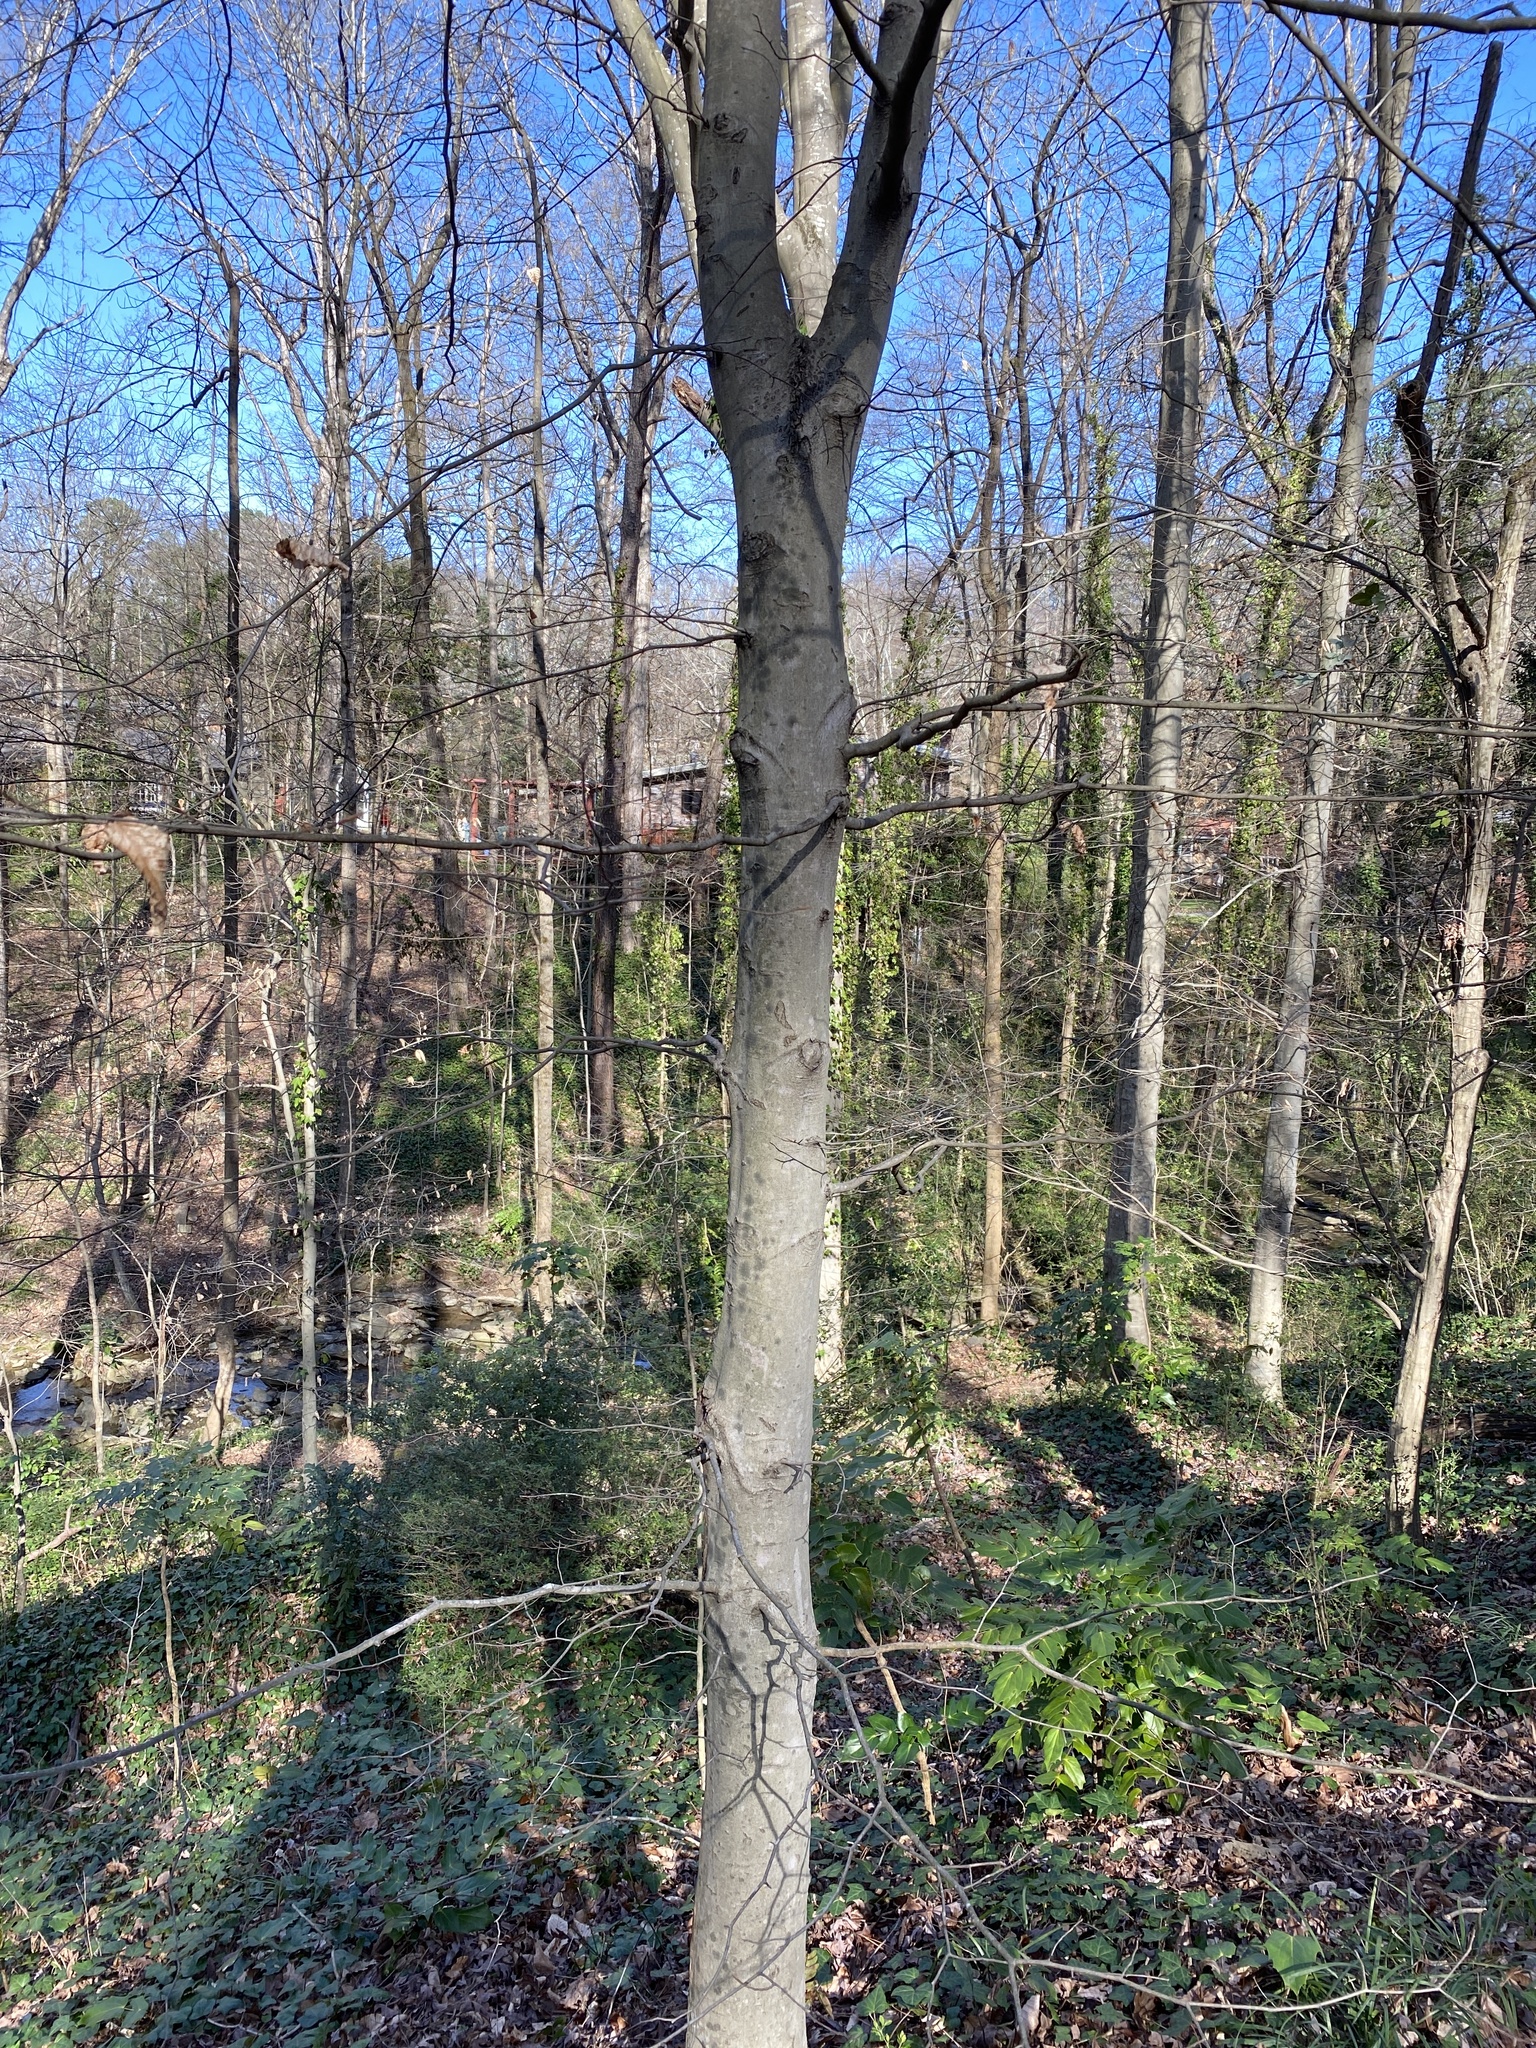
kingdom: Plantae
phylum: Tracheophyta
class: Magnoliopsida
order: Fagales
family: Fagaceae
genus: Fagus
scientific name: Fagus grandifolia
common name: American beech
